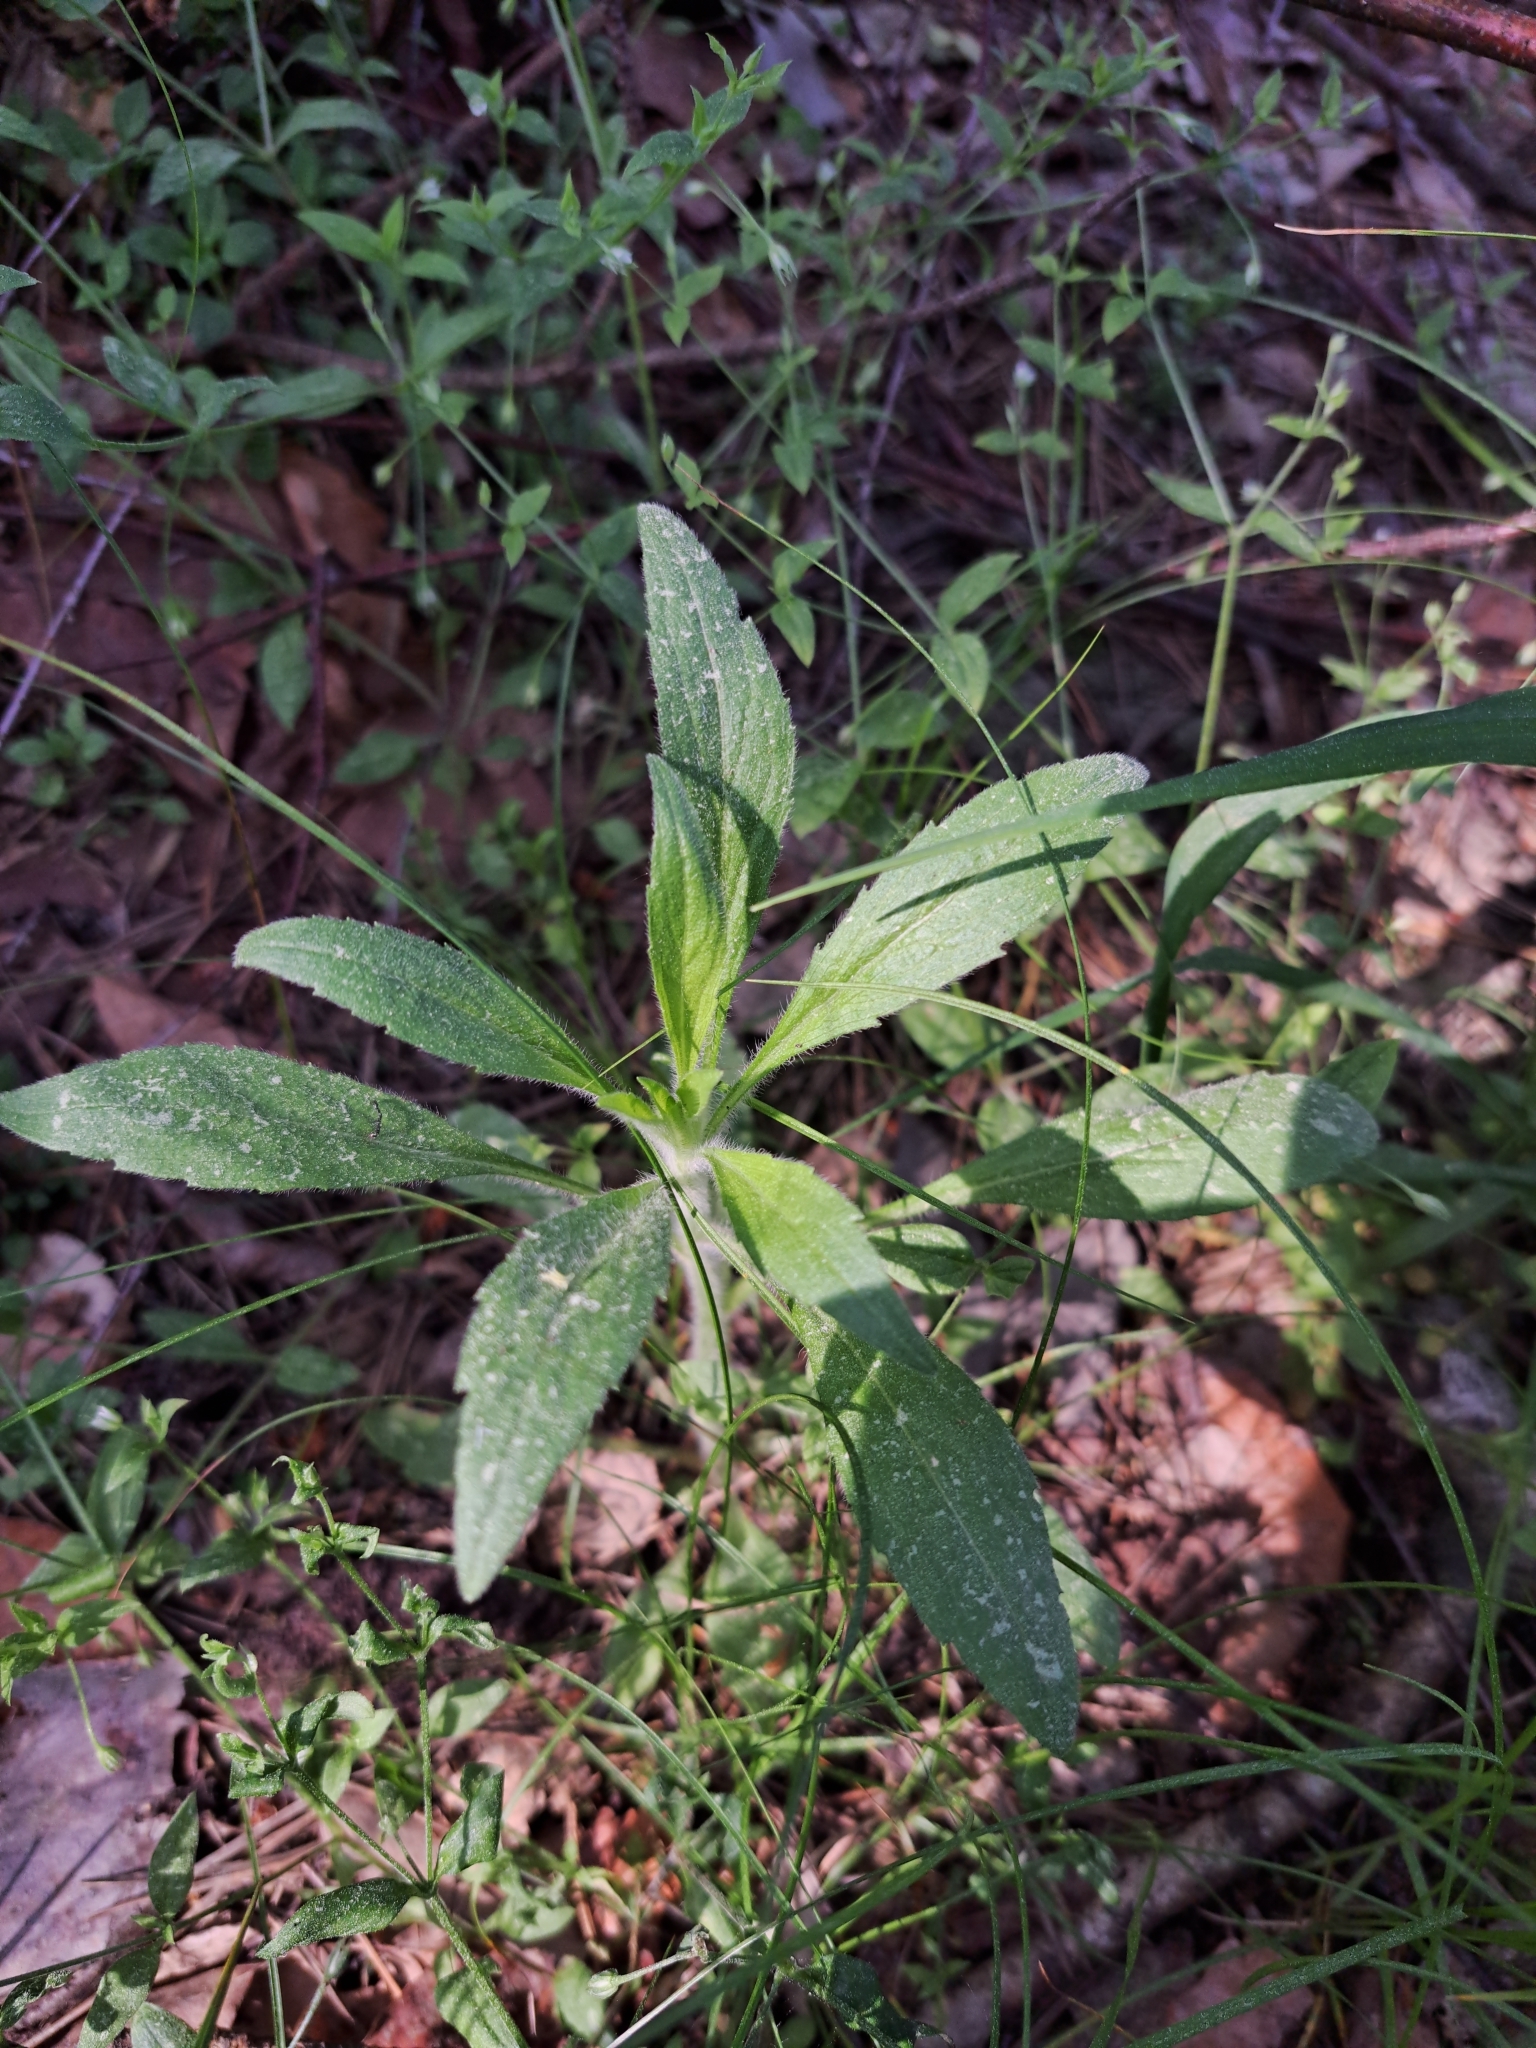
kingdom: Plantae
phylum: Tracheophyta
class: Magnoliopsida
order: Asterales
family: Asteraceae
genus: Erigeron
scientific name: Erigeron canadensis
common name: Canadian fleabane
